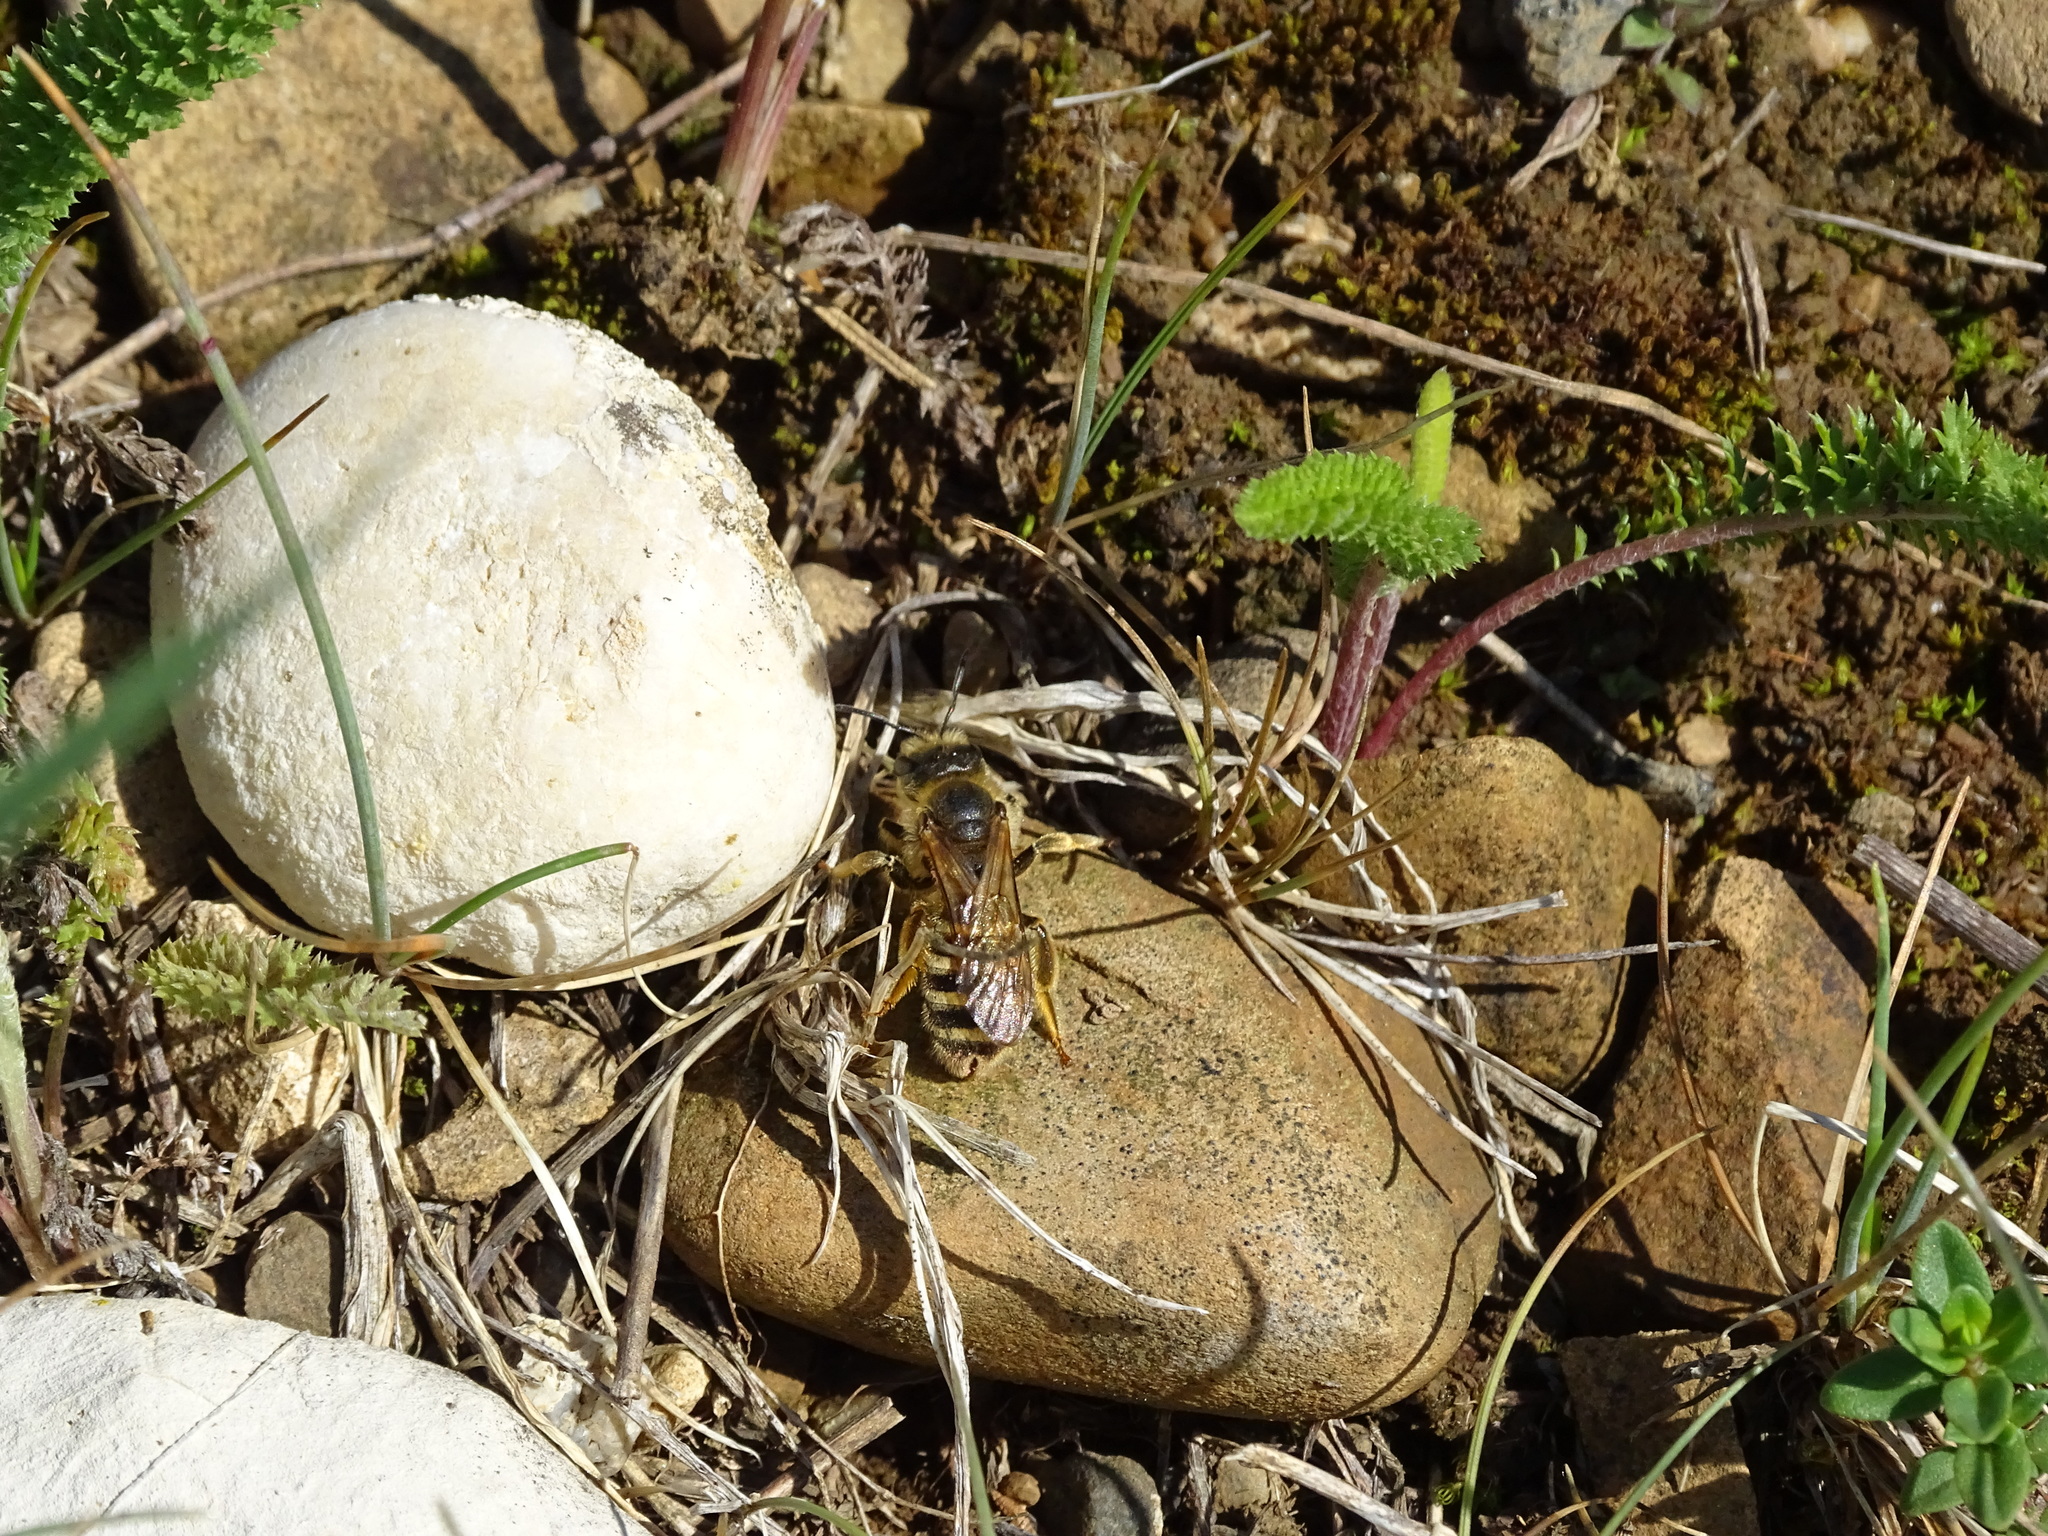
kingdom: Animalia
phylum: Arthropoda
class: Insecta
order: Hymenoptera
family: Halictidae
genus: Halictus
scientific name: Halictus scabiosae
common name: Great banded furrow bee
